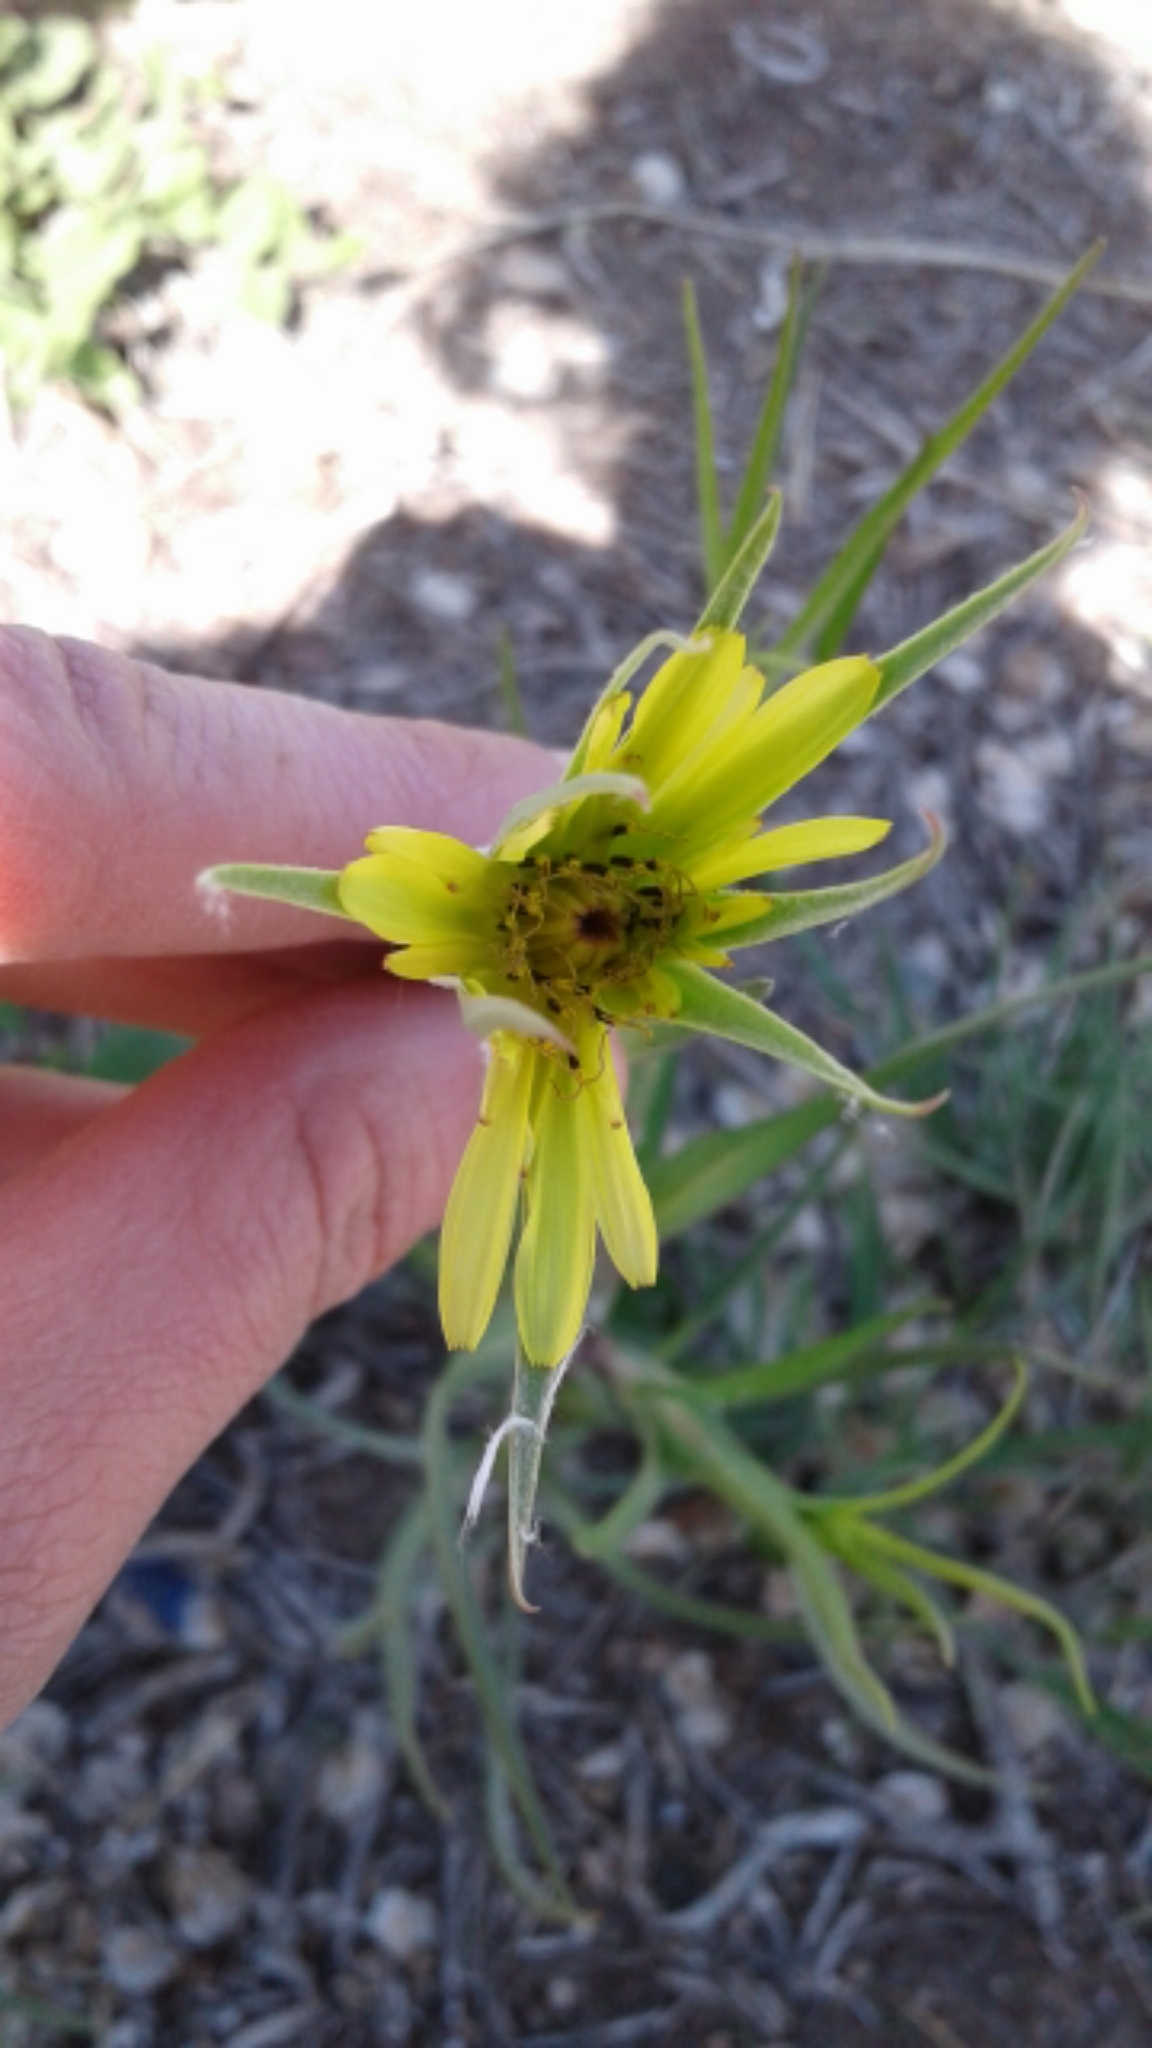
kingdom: Plantae
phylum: Tracheophyta
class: Magnoliopsida
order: Asterales
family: Asteraceae
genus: Tragopogon
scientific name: Tragopogon dubius
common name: Yellow salsify
